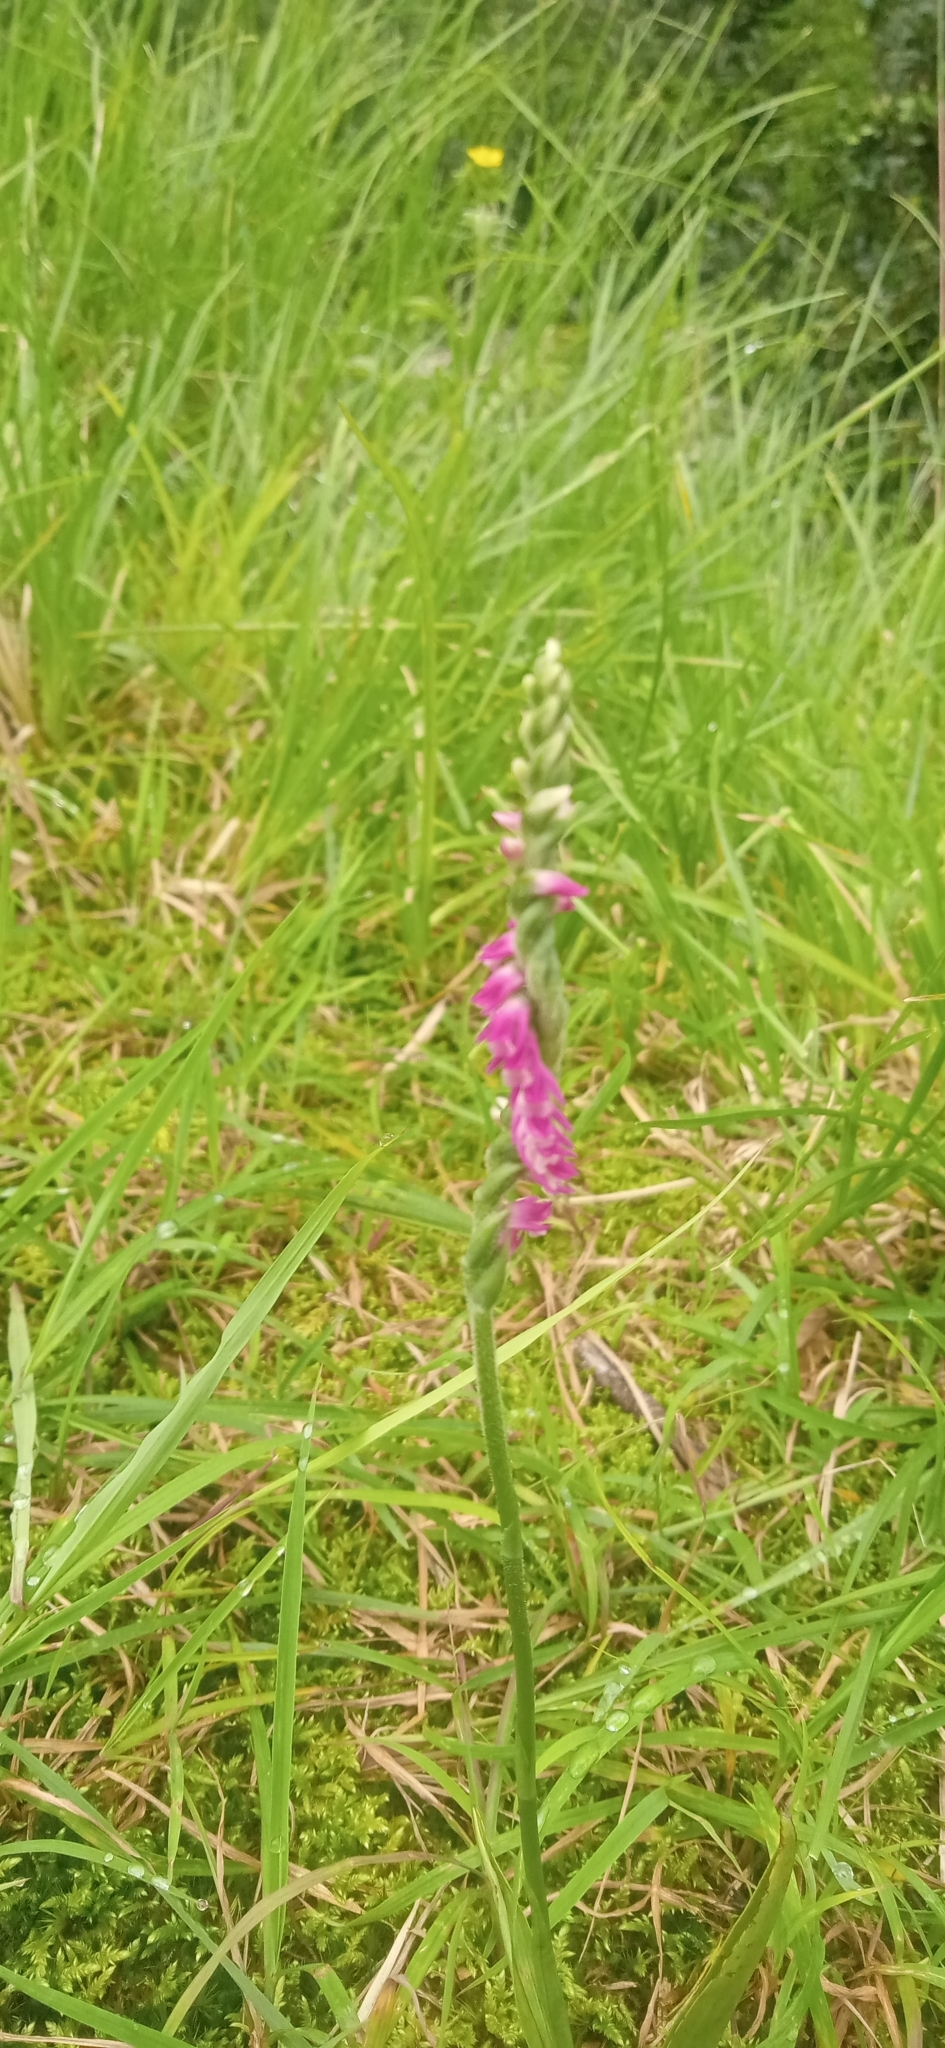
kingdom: Plantae
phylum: Tracheophyta
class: Liliopsida
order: Asparagales
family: Orchidaceae
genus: Spiranthes
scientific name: Spiranthes australis
